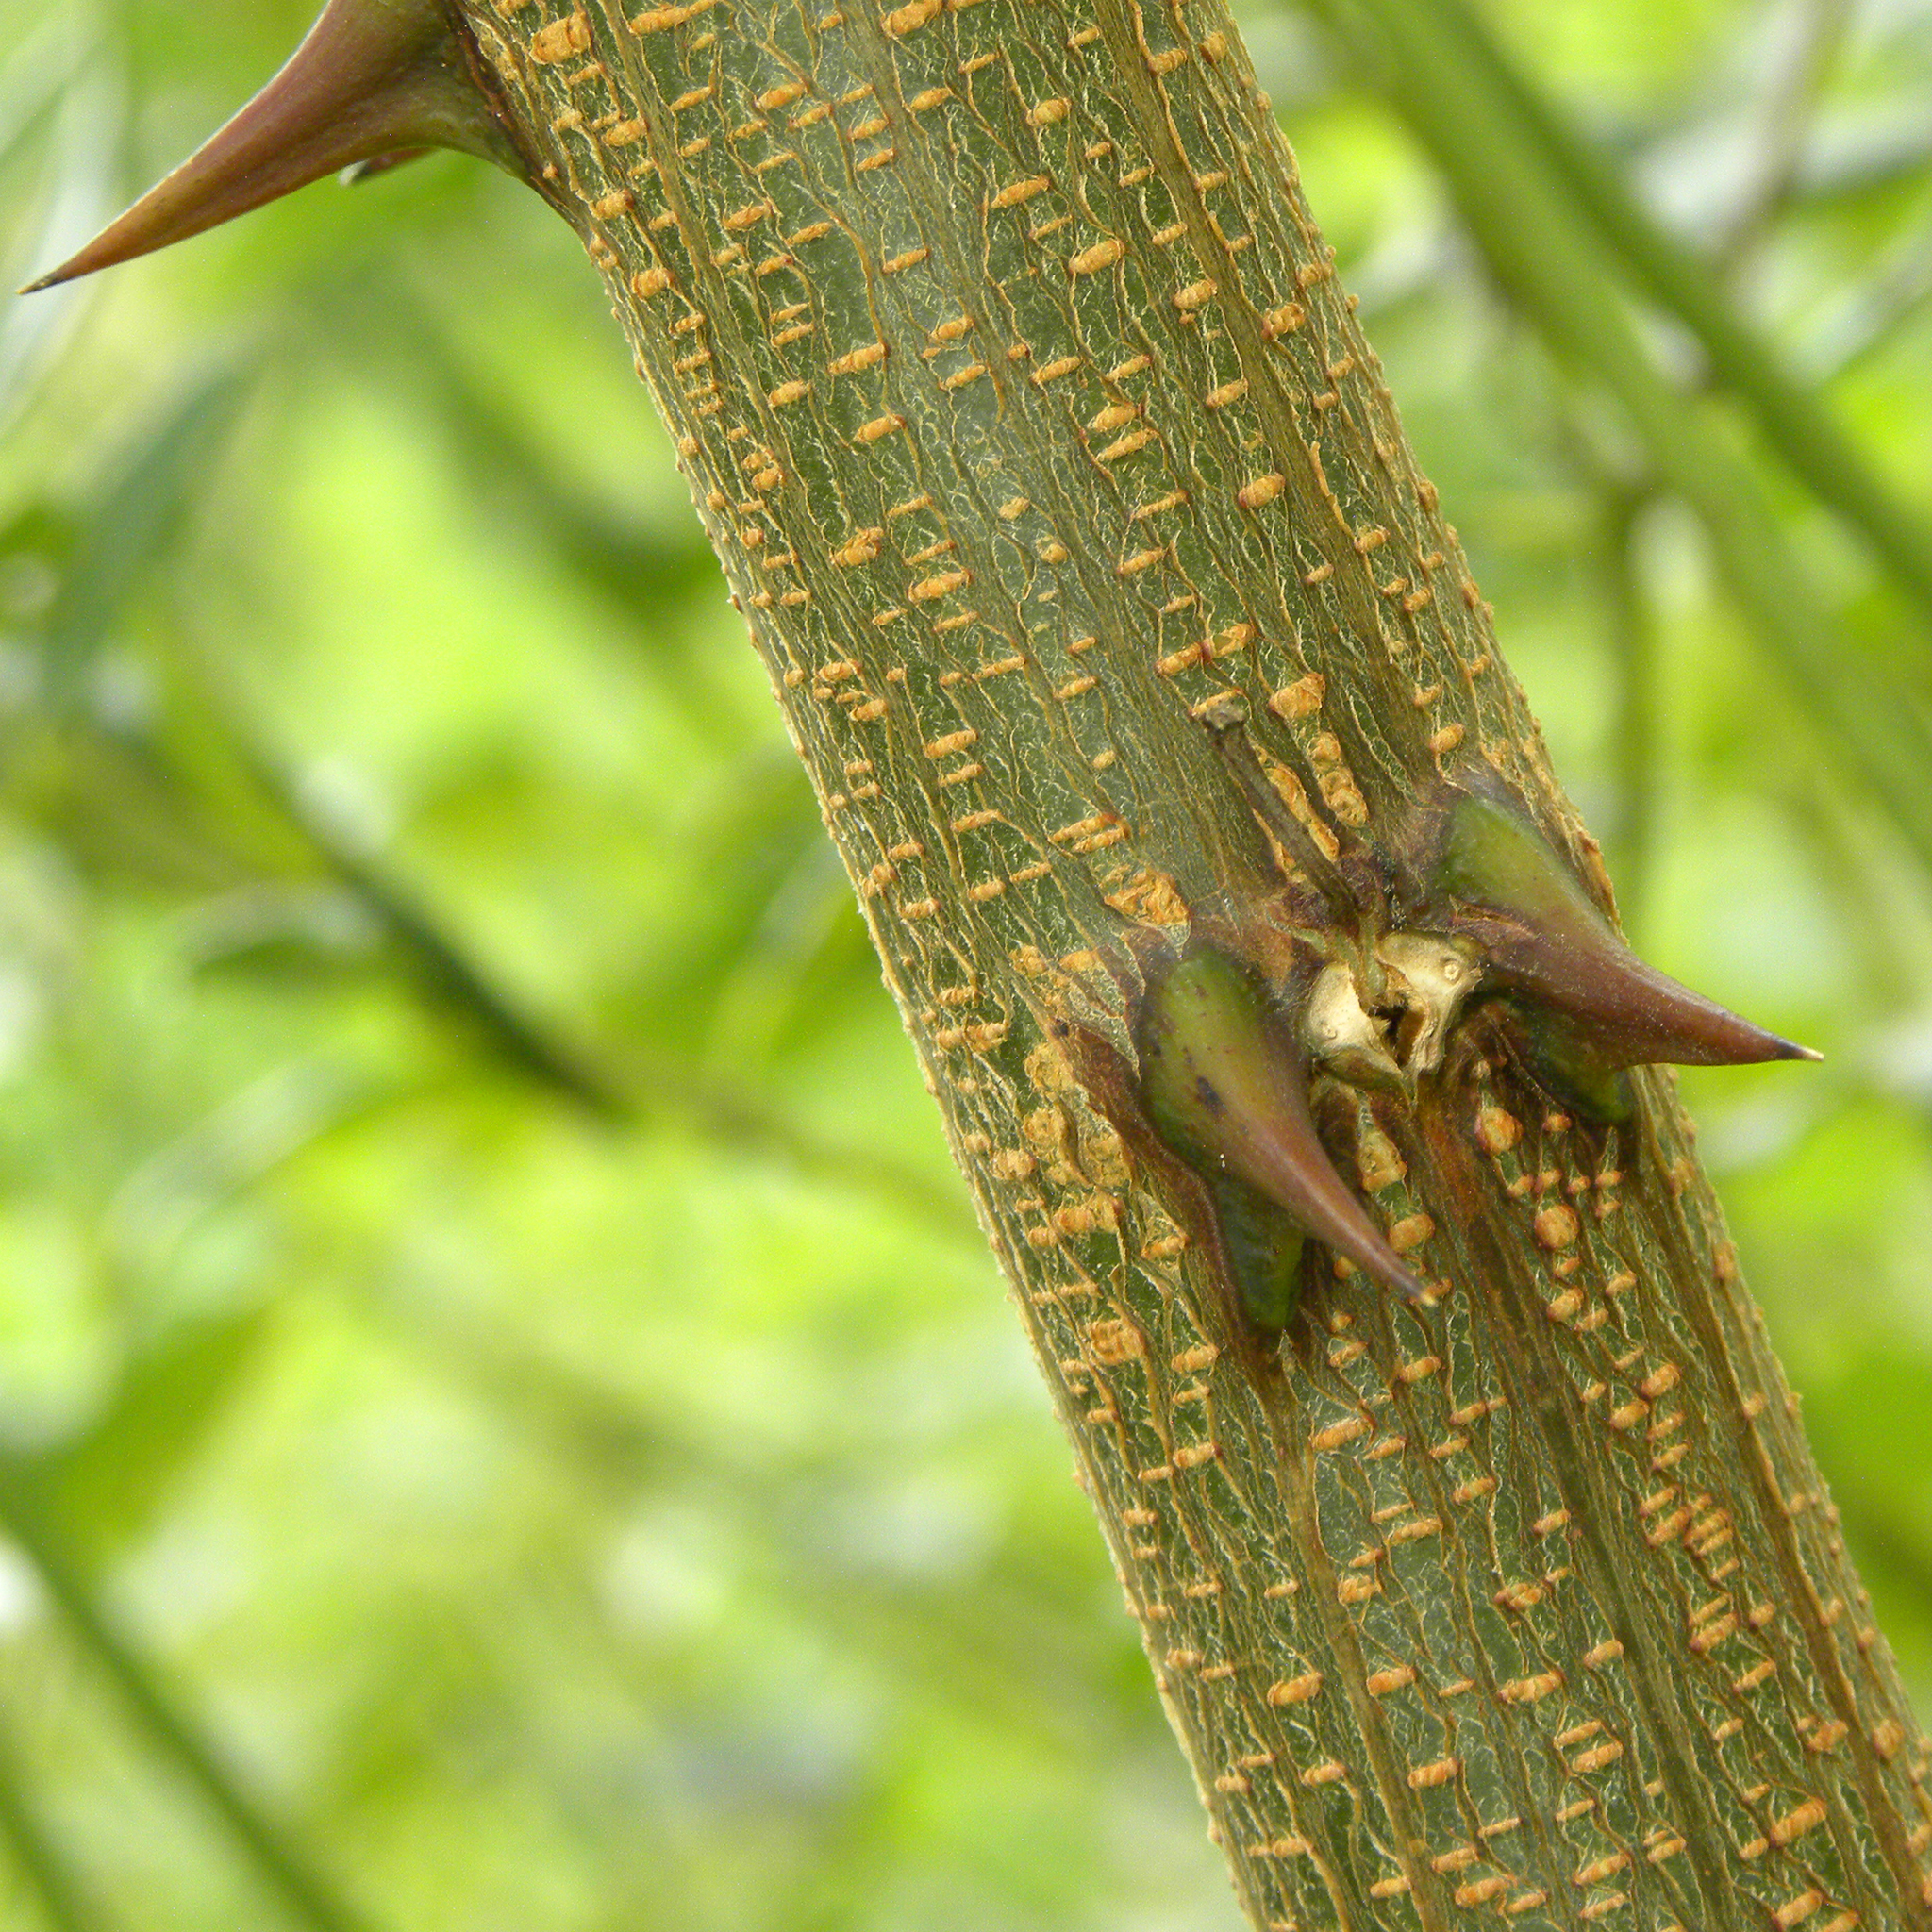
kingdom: Plantae
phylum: Tracheophyta
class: Magnoliopsida
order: Fabales
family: Fabaceae
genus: Robinia
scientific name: Robinia pseudoacacia
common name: Black locust
